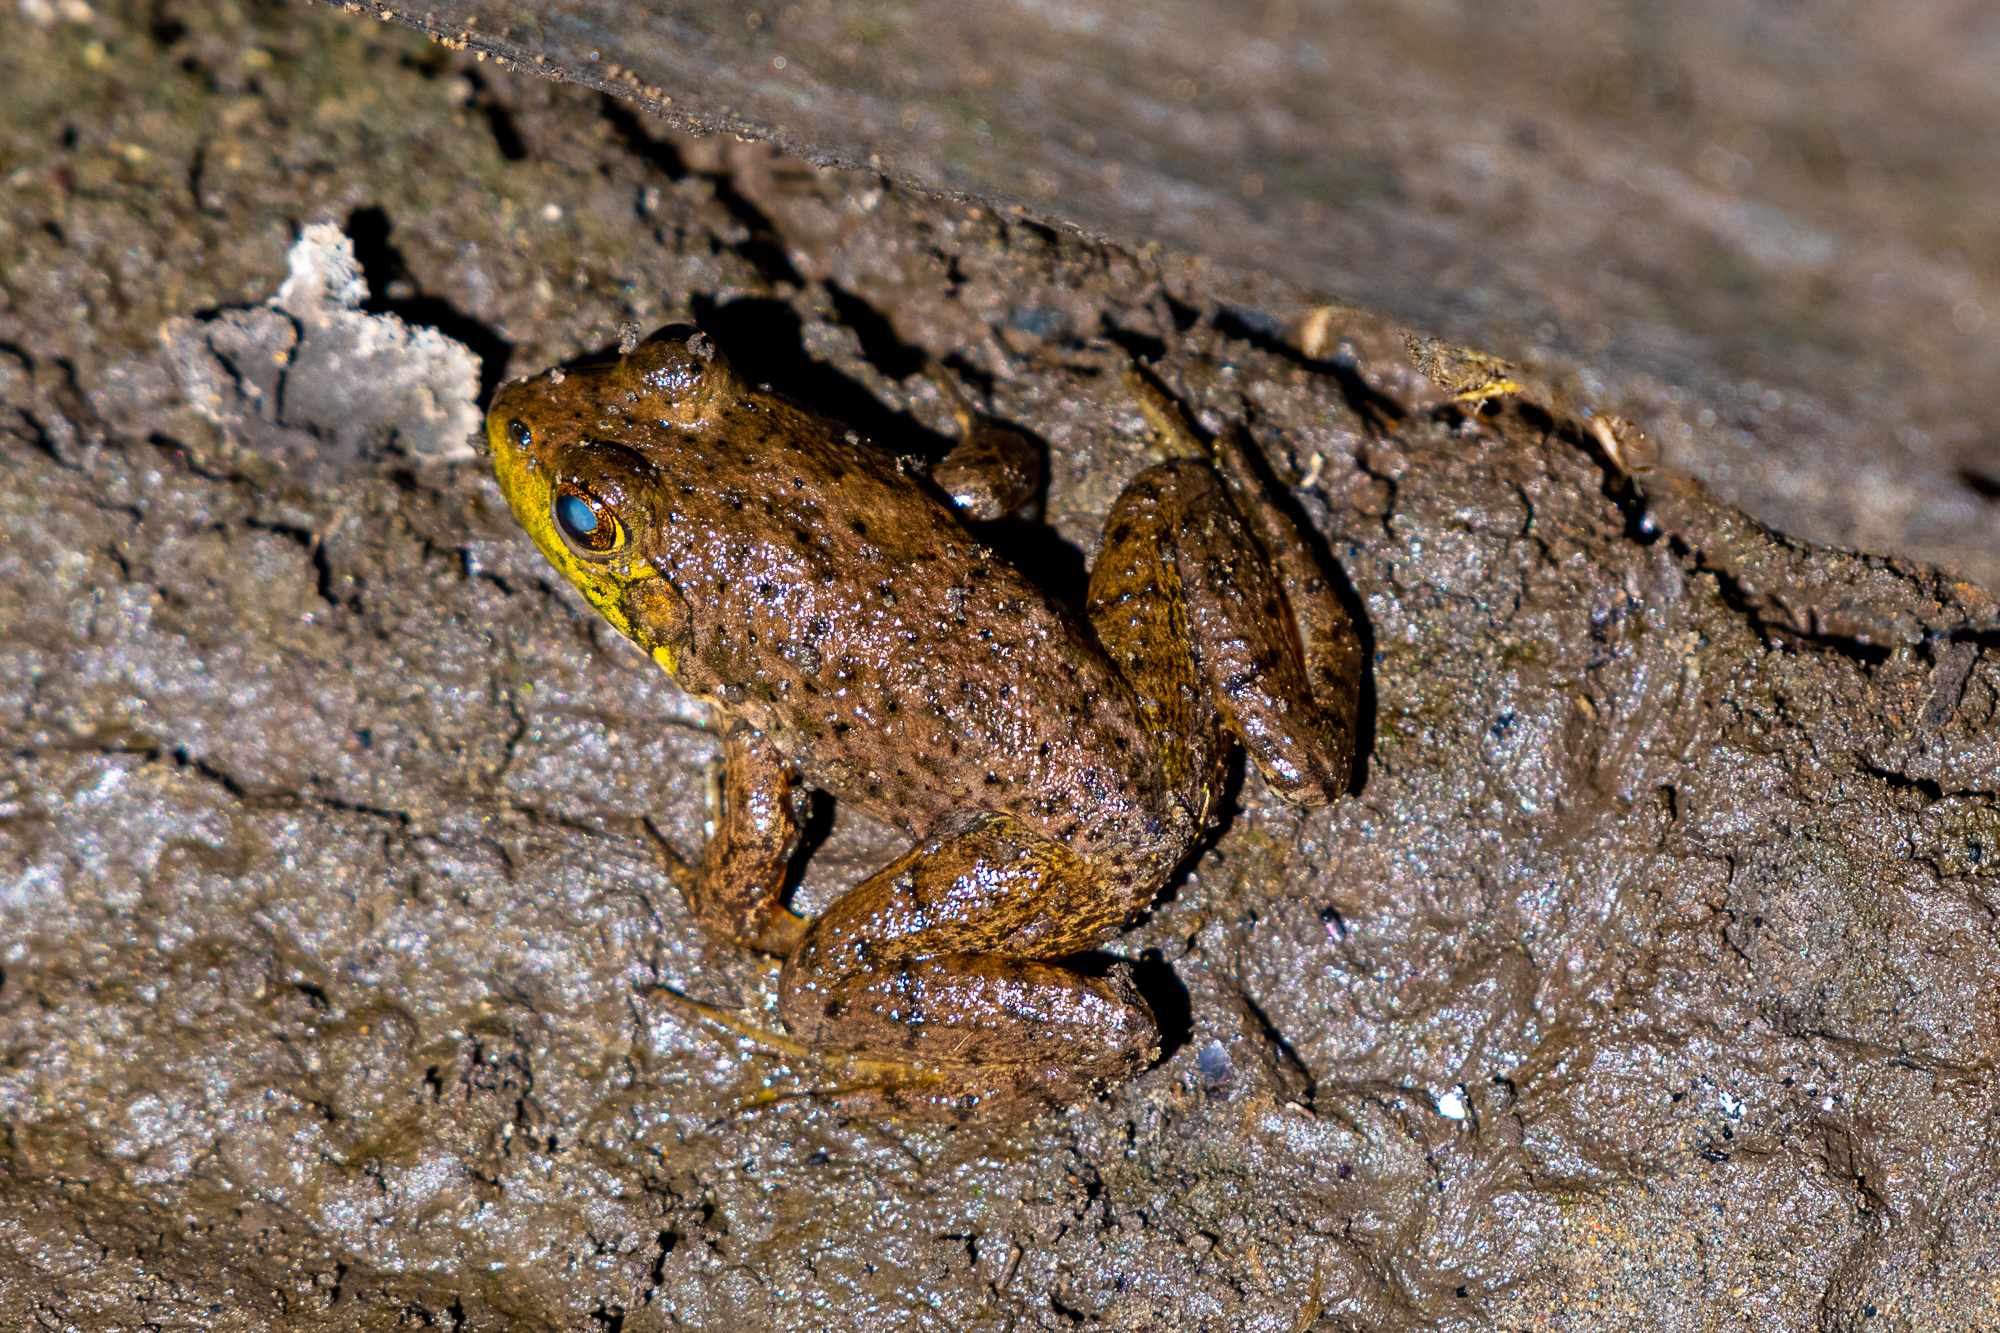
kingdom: Animalia
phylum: Chordata
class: Amphibia
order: Anura
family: Ranidae
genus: Lithobates
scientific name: Lithobates catesbeianus
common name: American bullfrog
